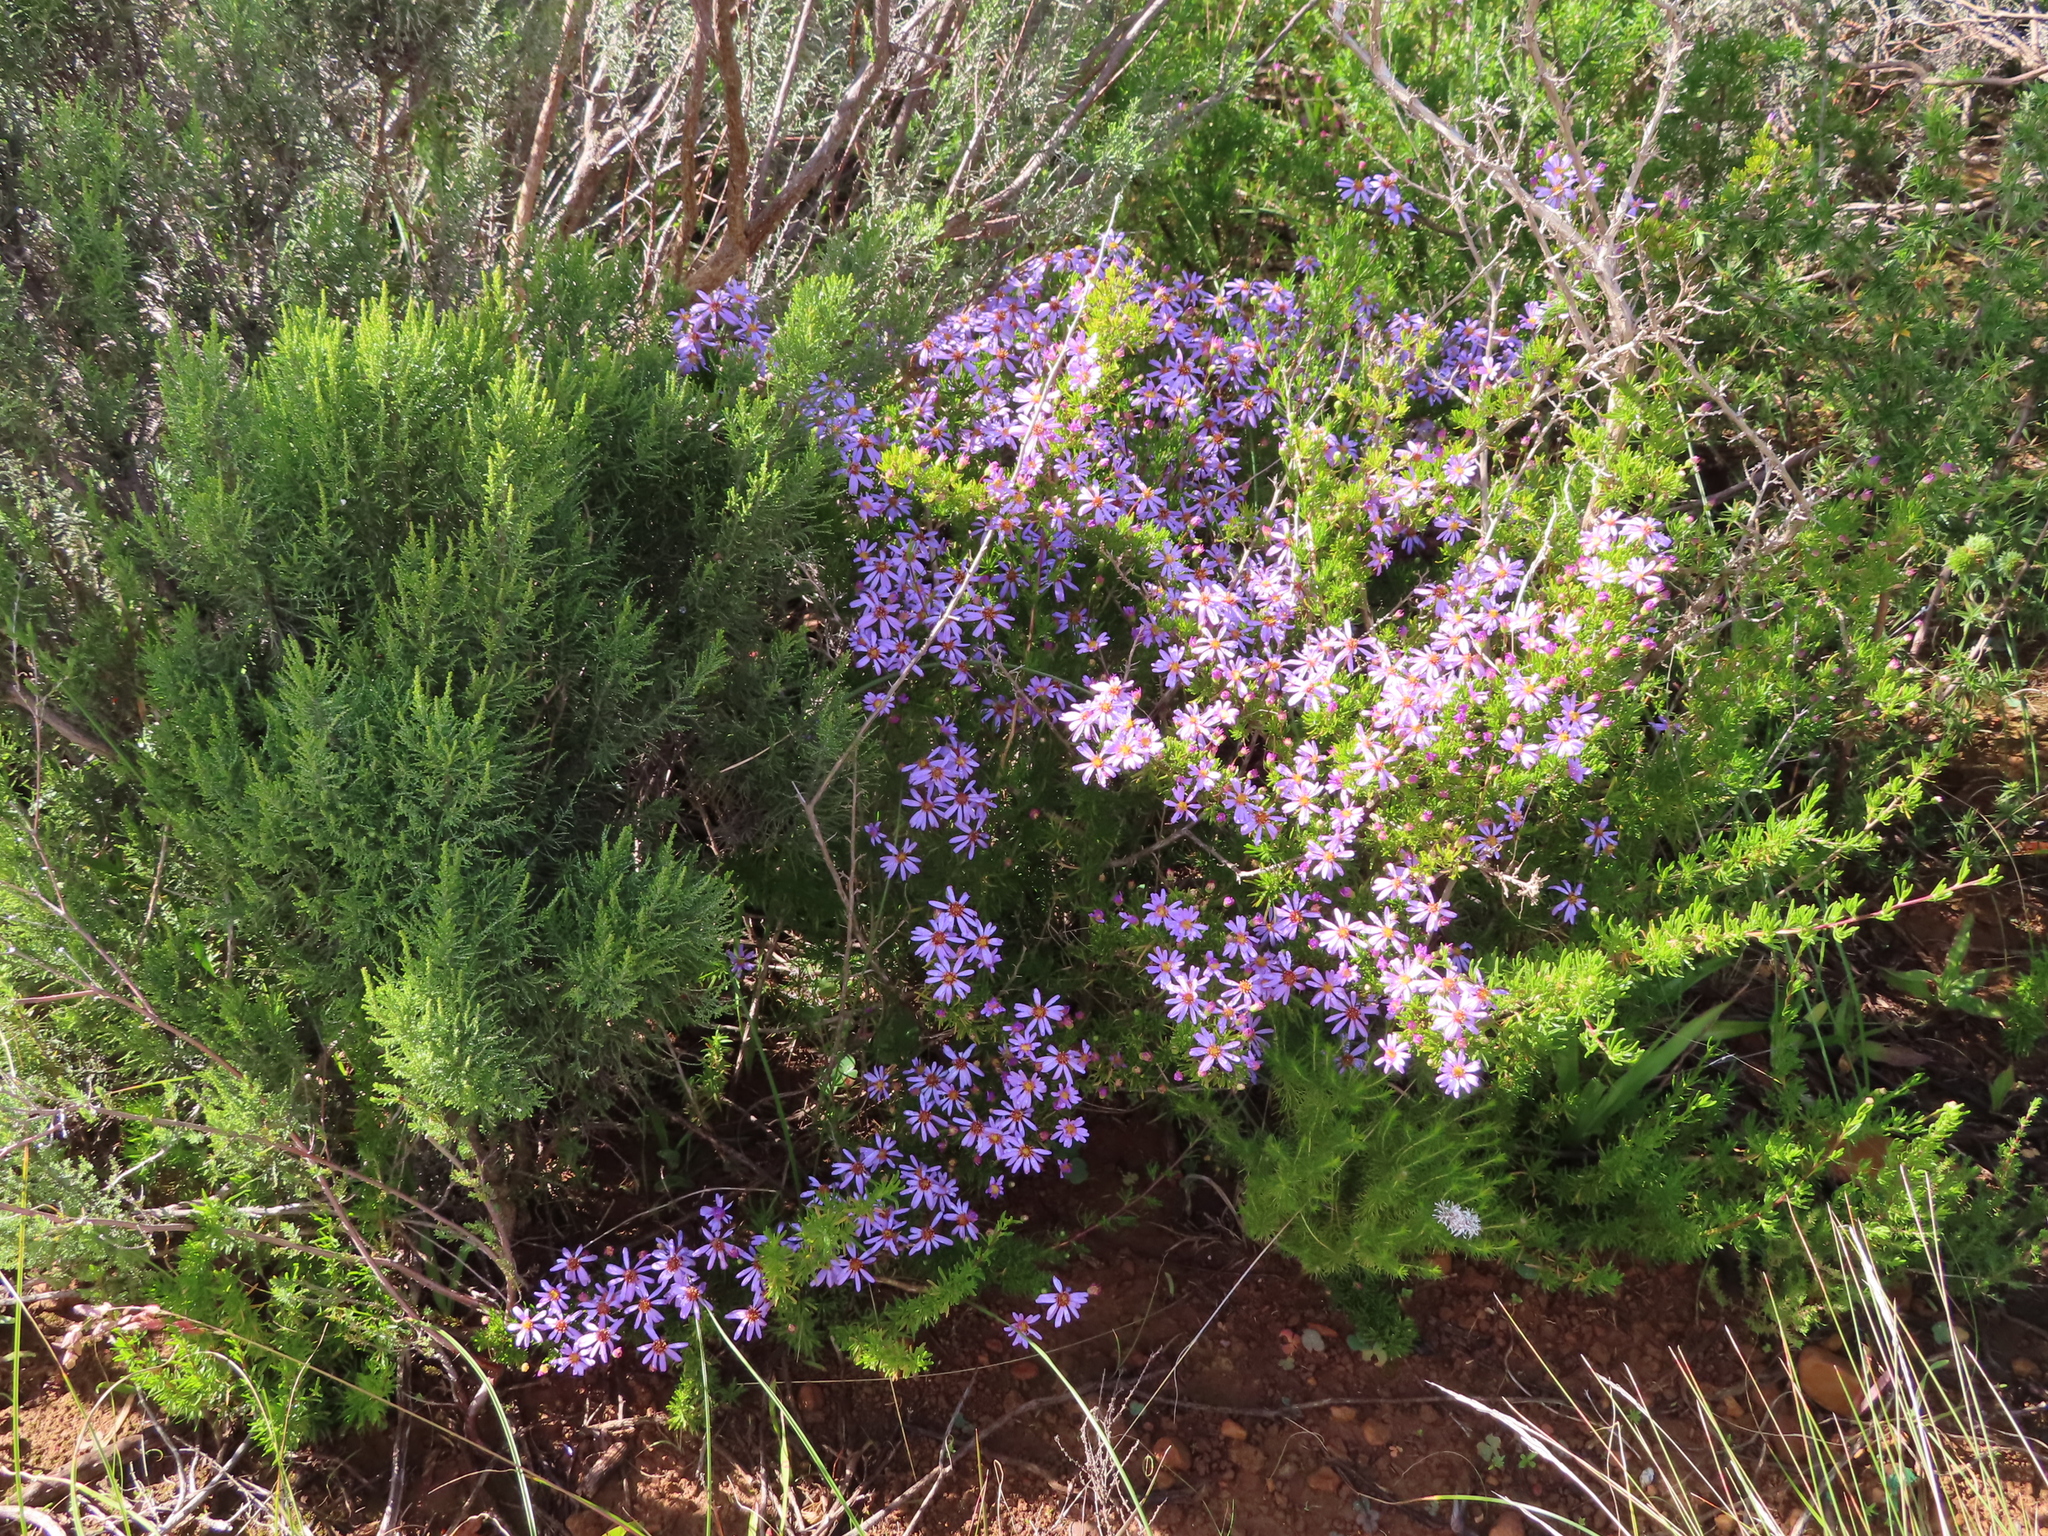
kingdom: Plantae
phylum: Tracheophyta
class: Magnoliopsida
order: Asterales
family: Asteraceae
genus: Felicia
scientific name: Felicia filifolia
